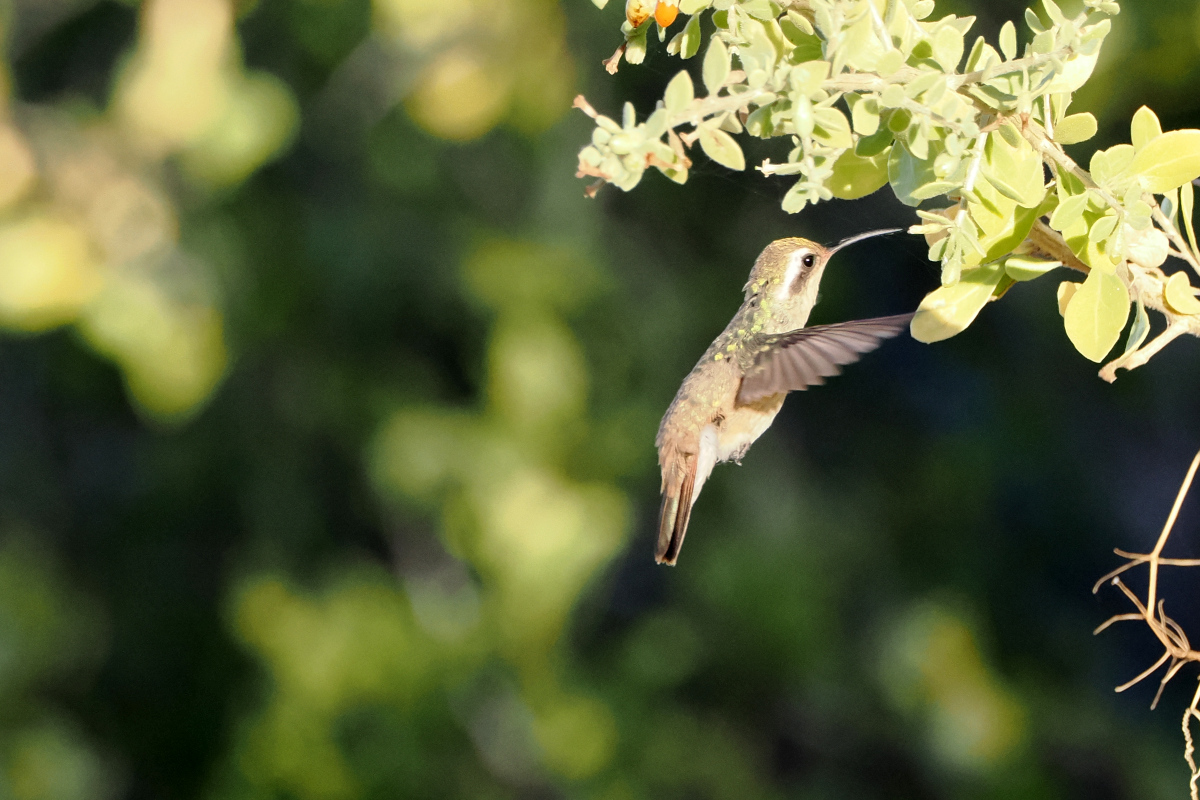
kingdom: Animalia
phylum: Chordata
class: Aves
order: Apodiformes
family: Trochilidae
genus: Basilinna
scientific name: Basilinna xantusii
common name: Xantus's hummingbird
